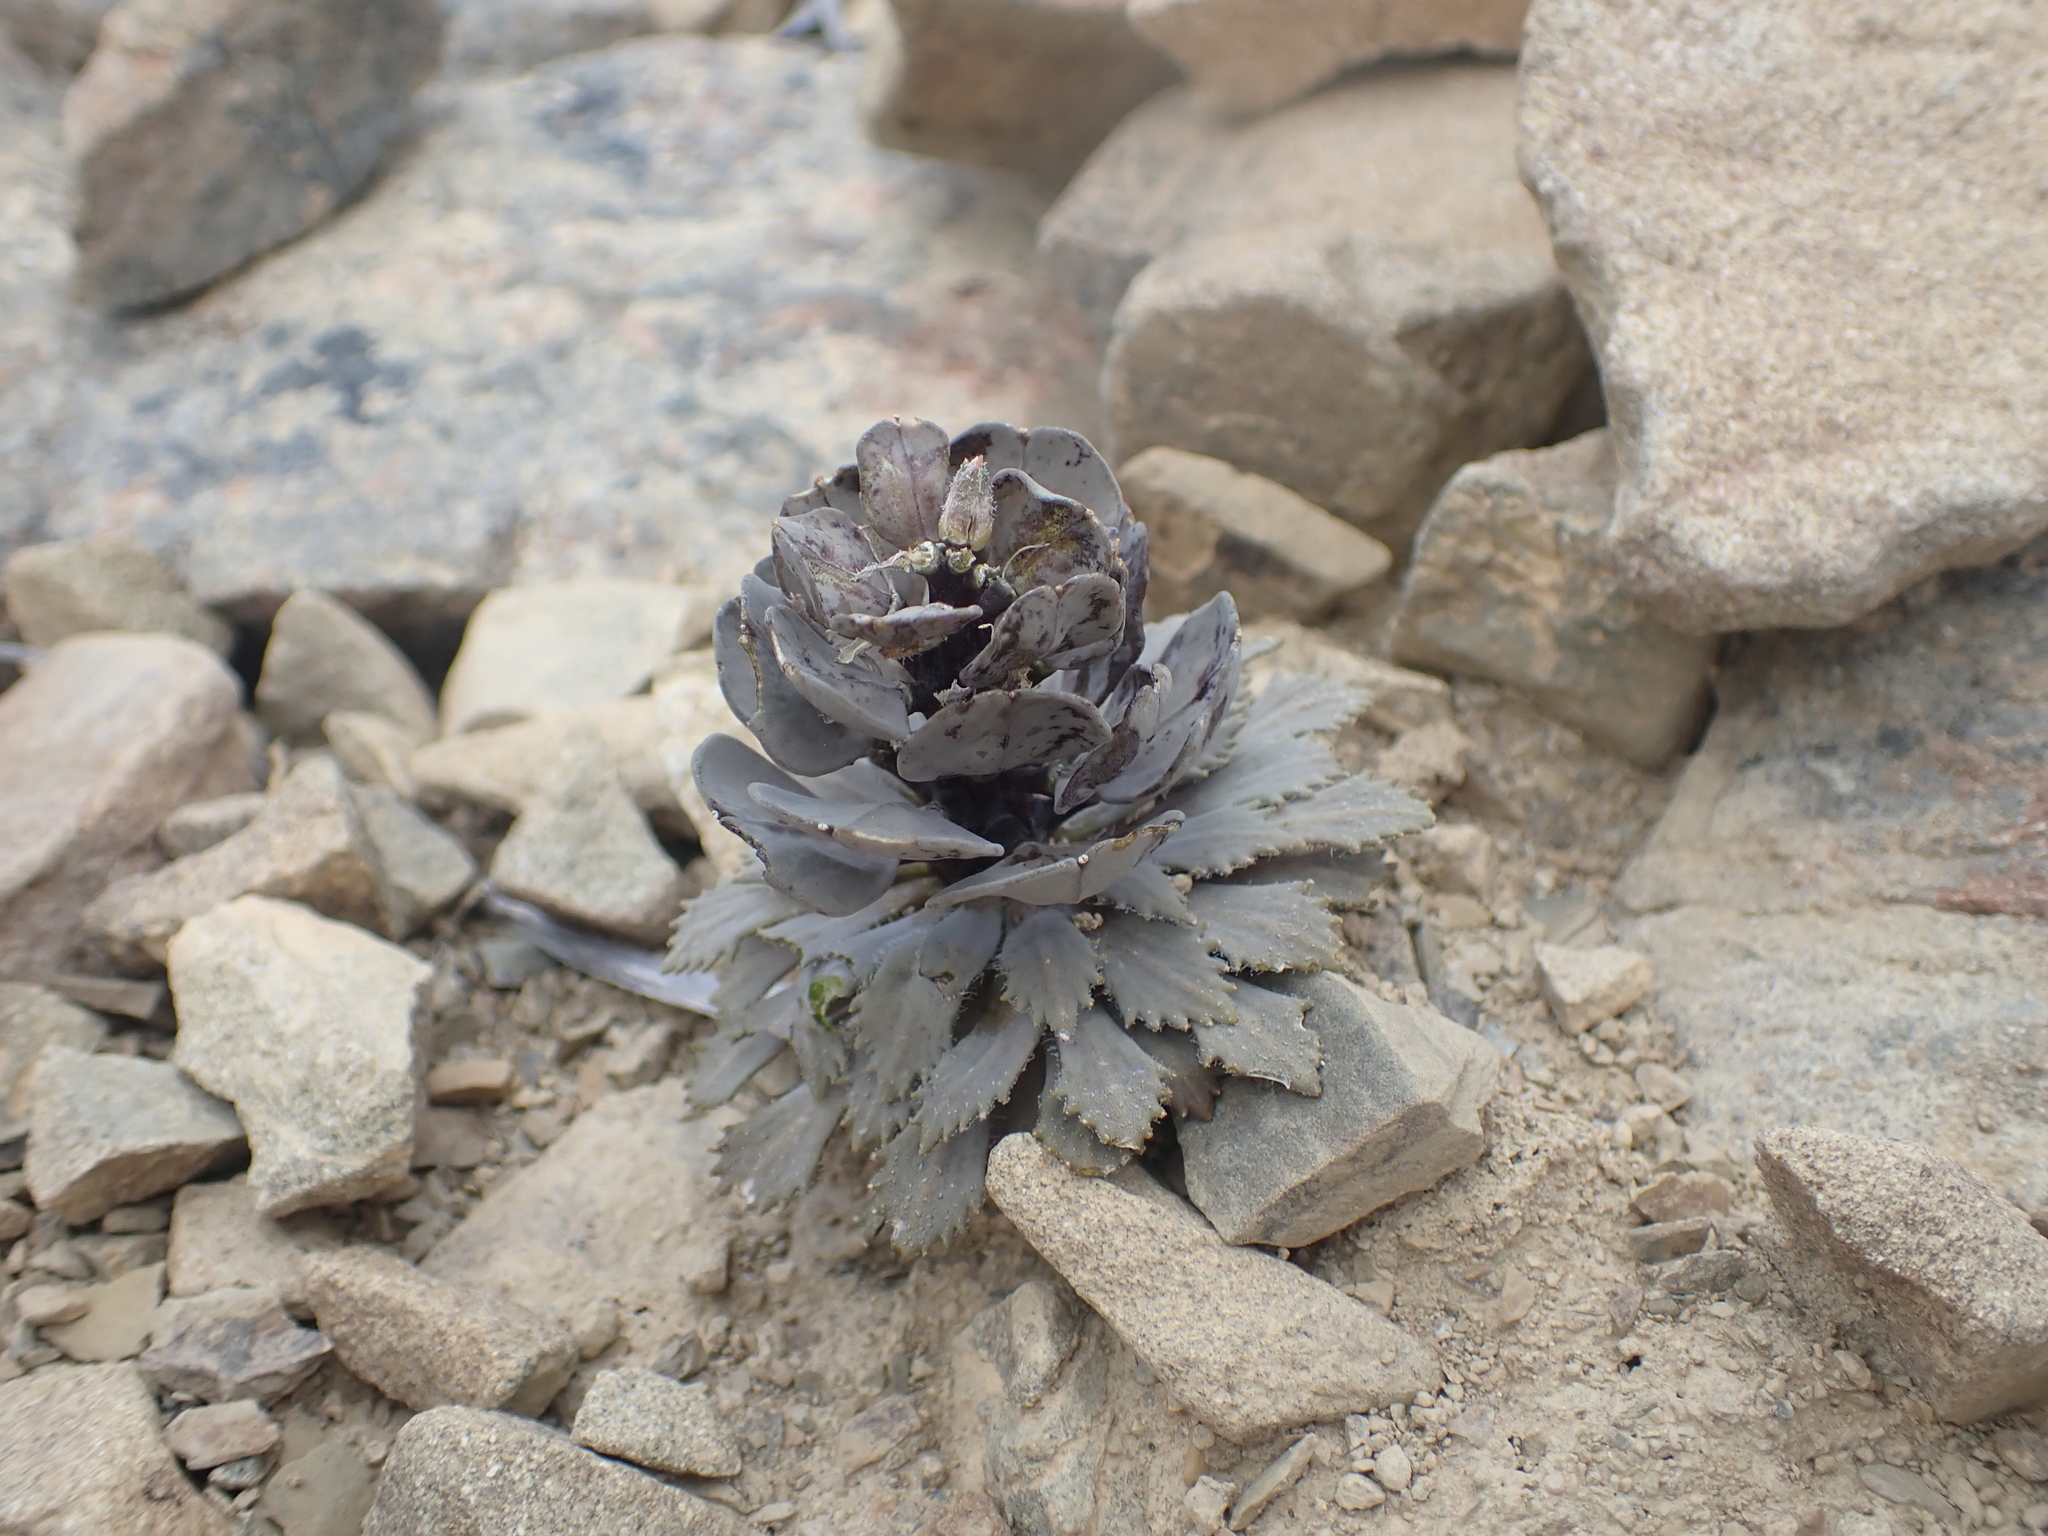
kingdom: Plantae
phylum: Tracheophyta
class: Magnoliopsida
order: Brassicales
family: Brassicaceae
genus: Notothlaspi
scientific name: Notothlaspi rosulatum
